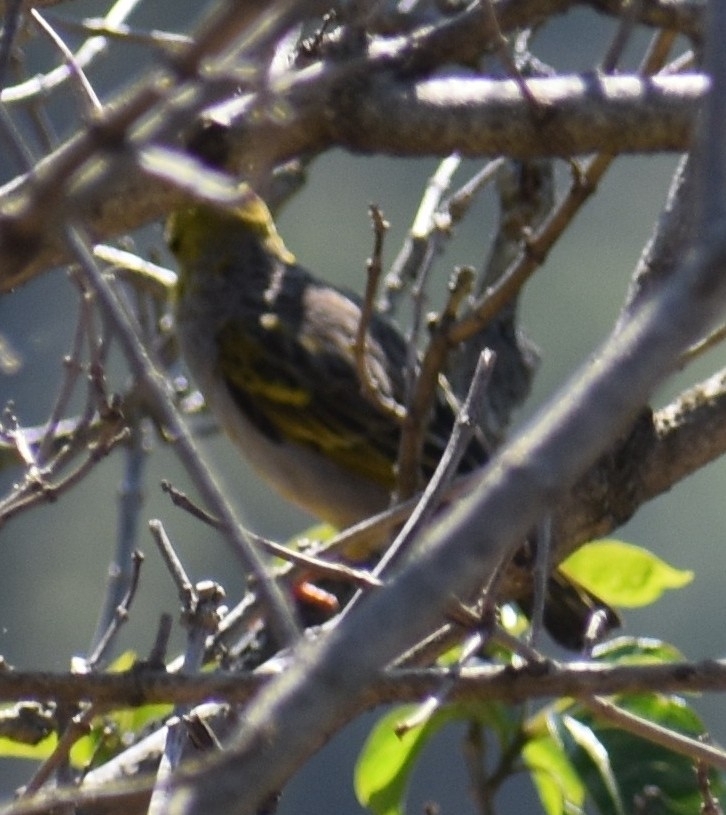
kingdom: Animalia
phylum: Chordata
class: Aves
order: Passeriformes
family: Ploceidae
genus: Ploceus
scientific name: Ploceus cucullatus
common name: Village weaver
